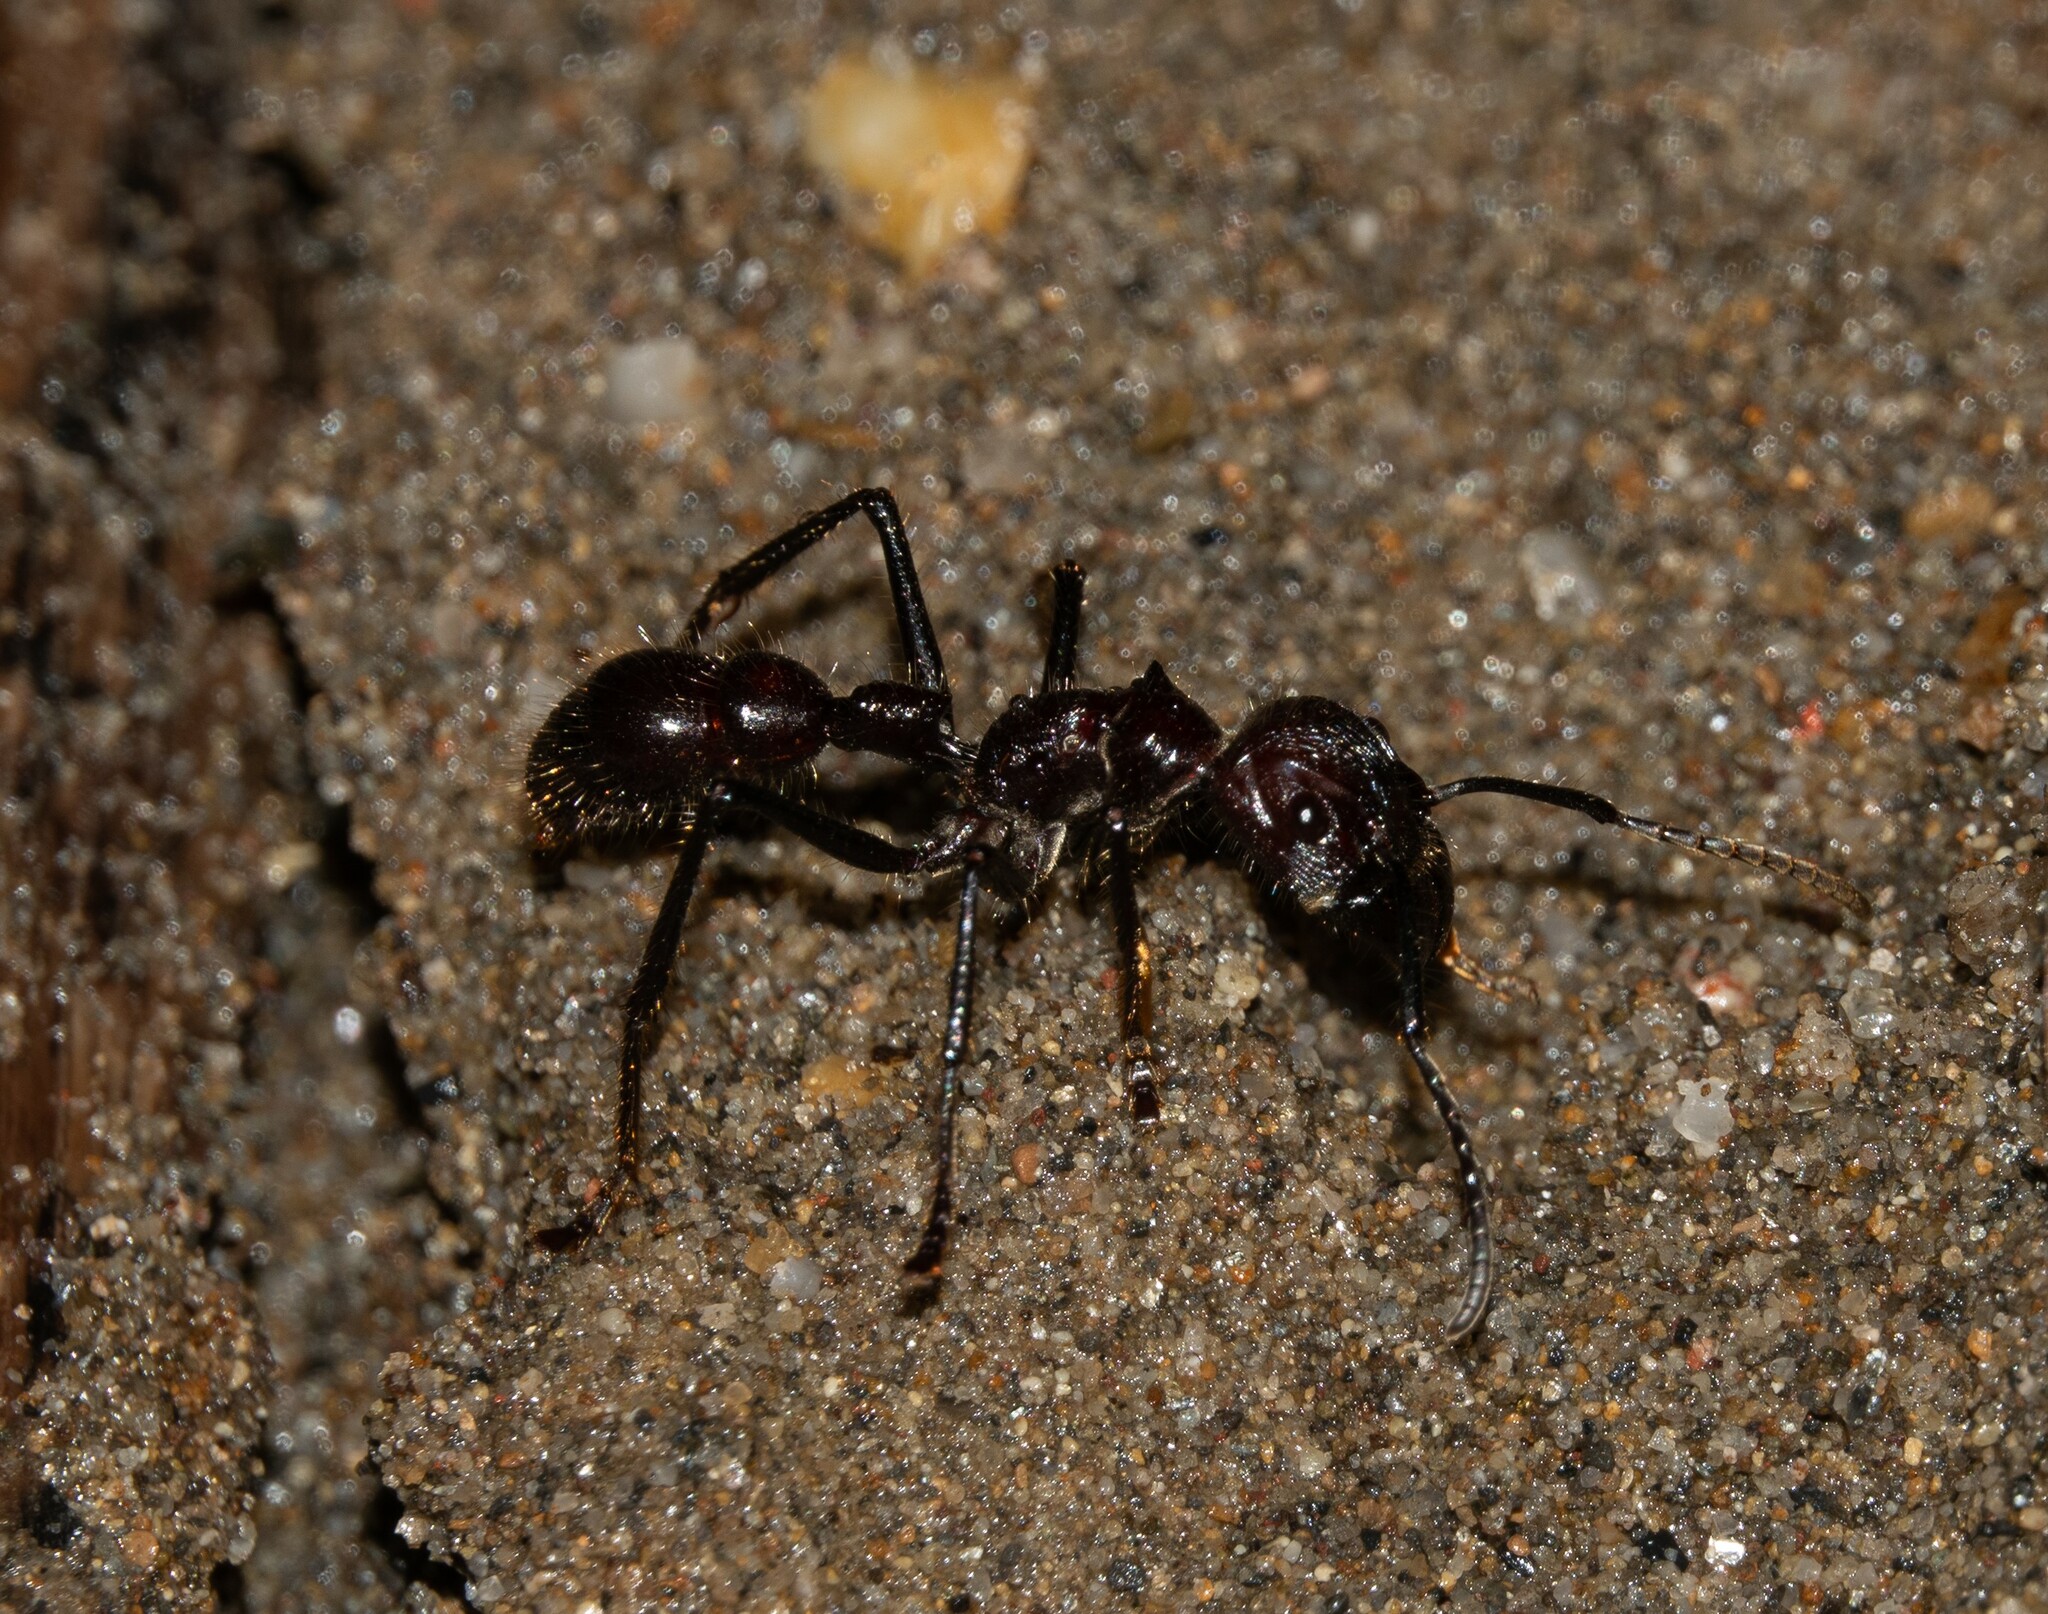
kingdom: Animalia
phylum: Arthropoda
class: Insecta
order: Hymenoptera
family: Formicidae
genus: Paraponera
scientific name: Paraponera clavata
